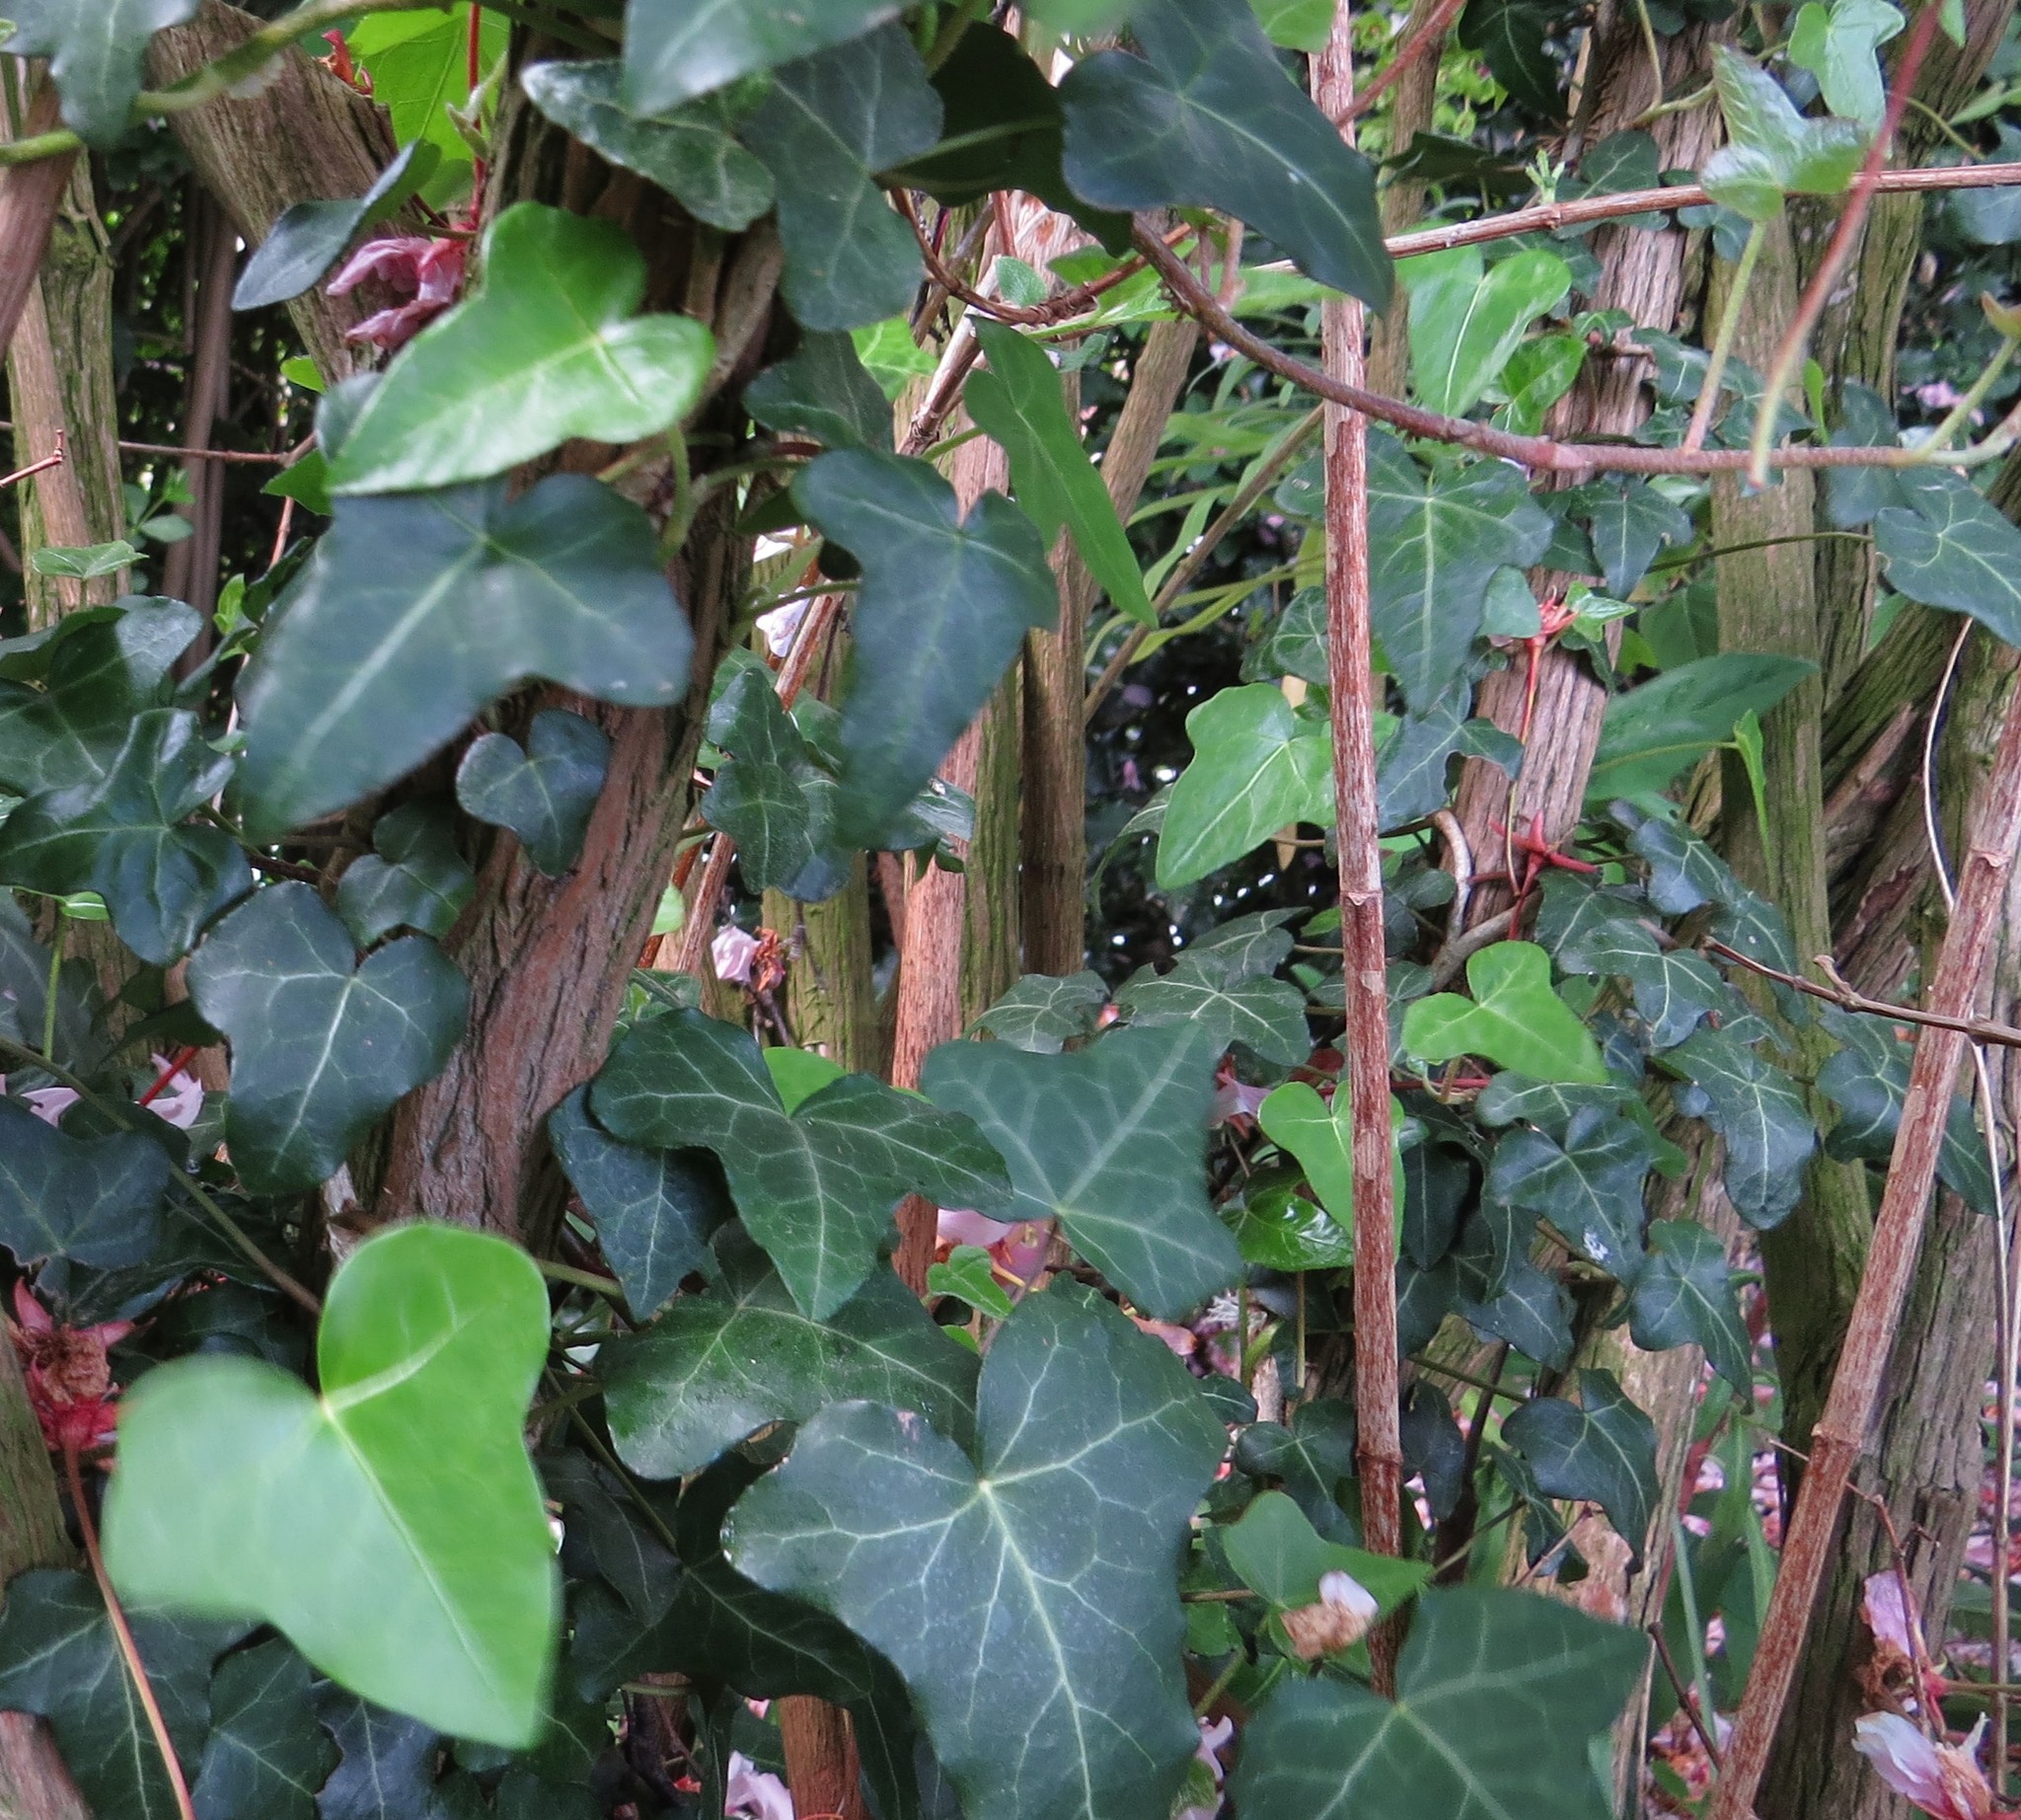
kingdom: Plantae
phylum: Tracheophyta
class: Magnoliopsida
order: Apiales
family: Araliaceae
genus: Hedera
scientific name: Hedera helix
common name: Ivy
